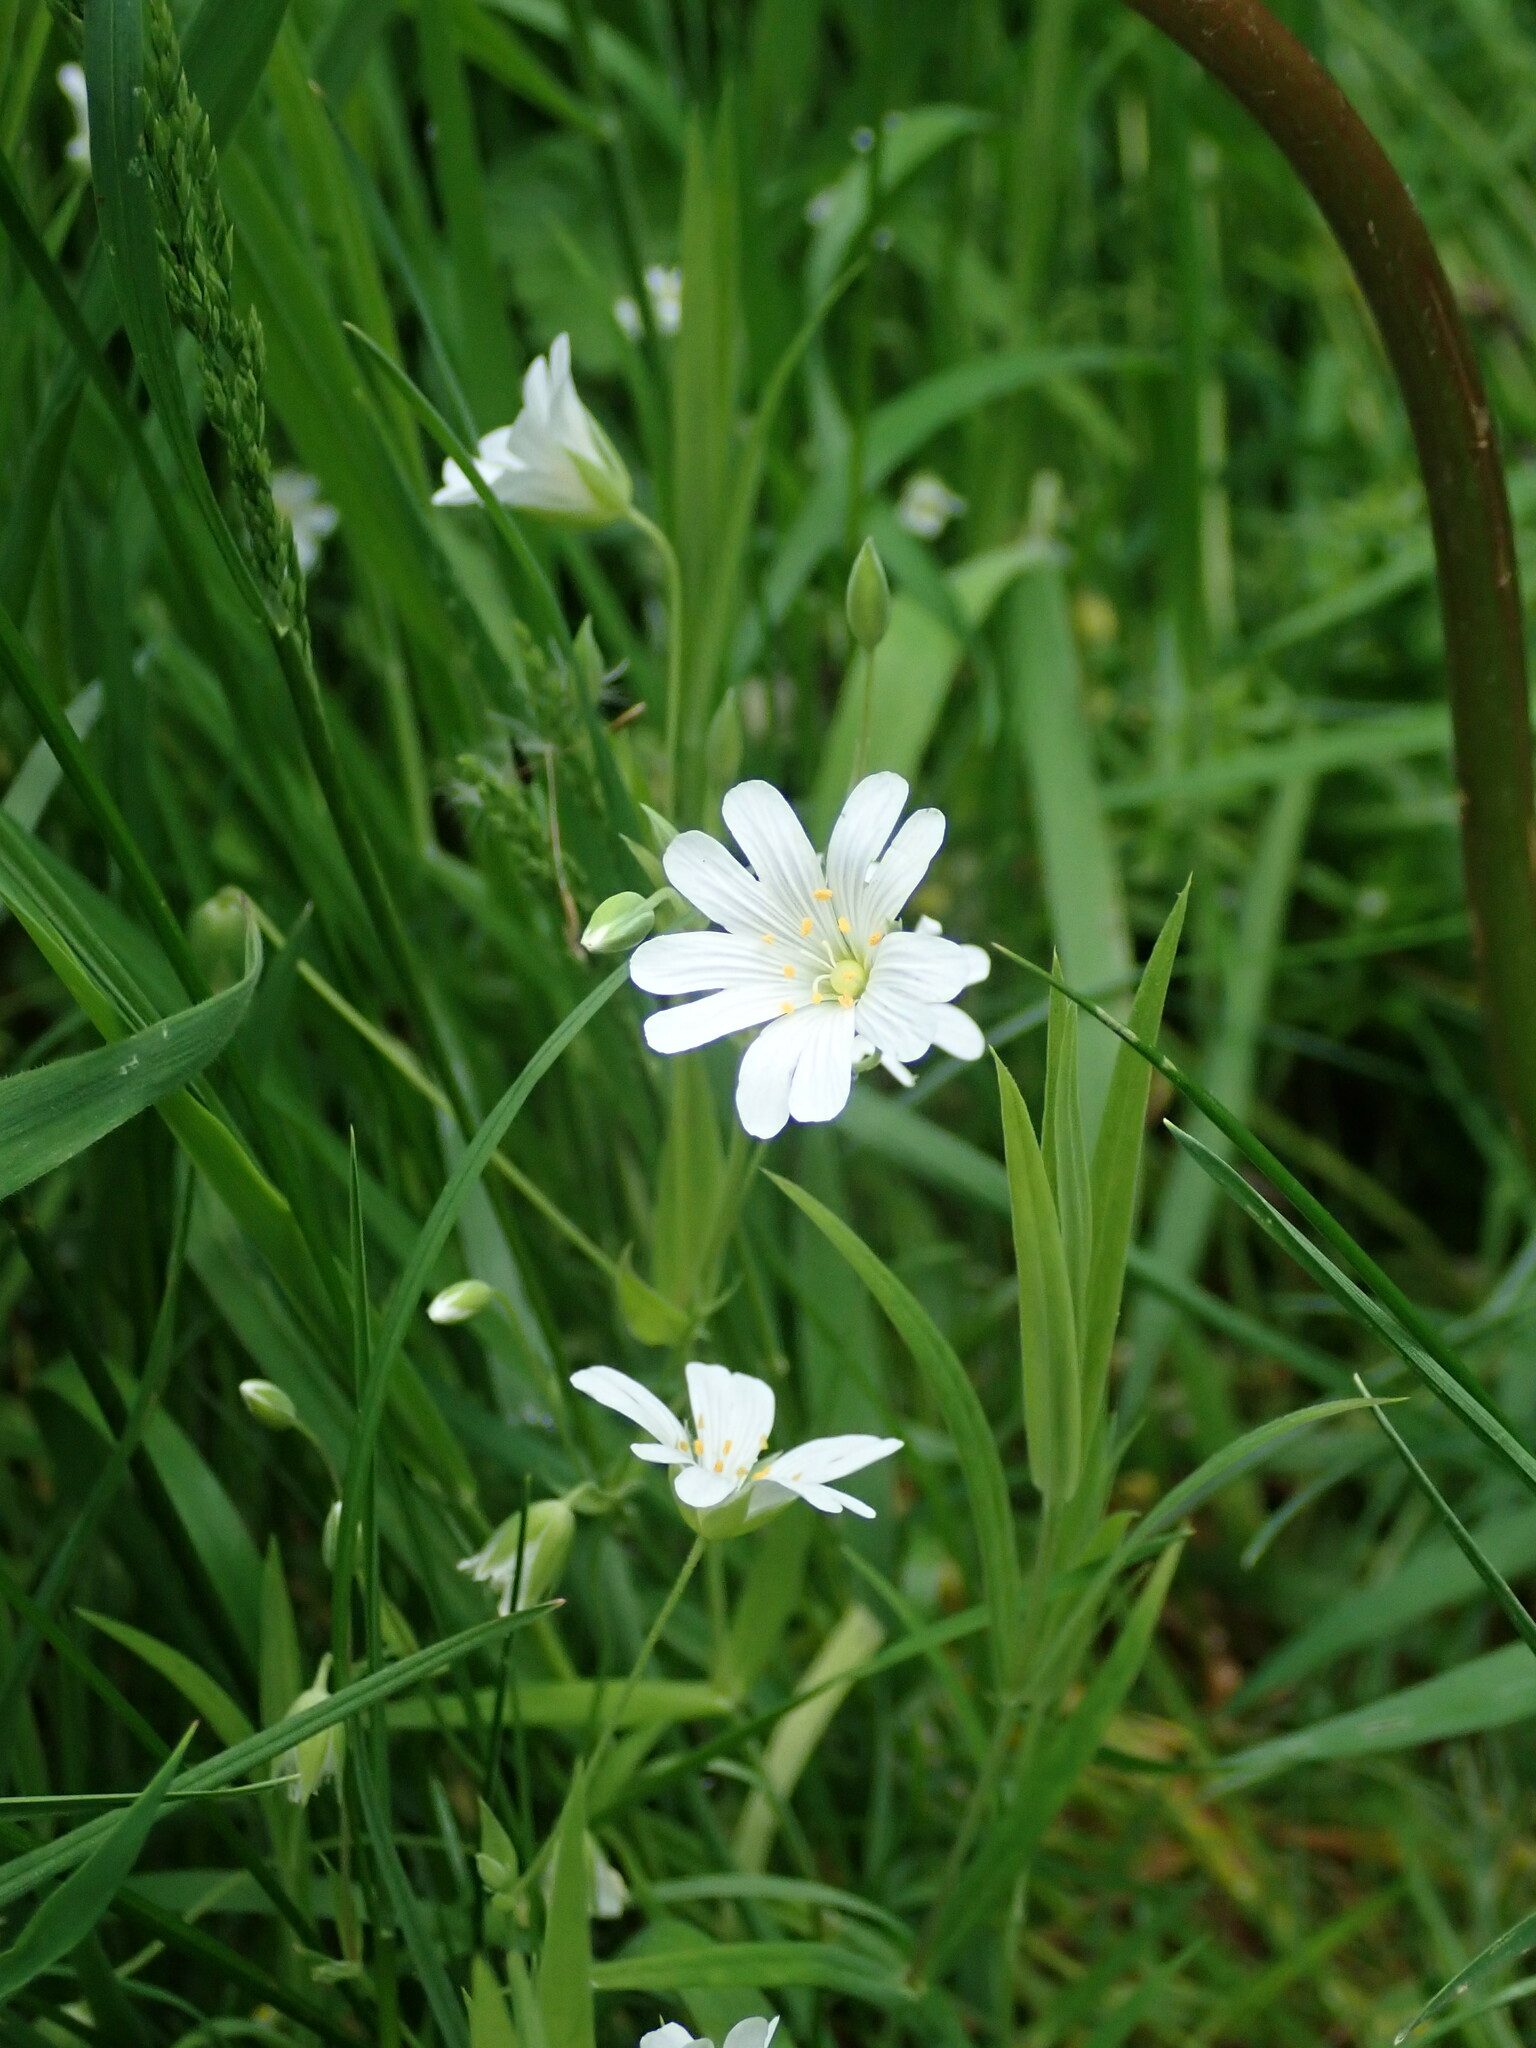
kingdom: Plantae
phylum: Tracheophyta
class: Magnoliopsida
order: Caryophyllales
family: Caryophyllaceae
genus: Rabelera
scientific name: Rabelera holostea
